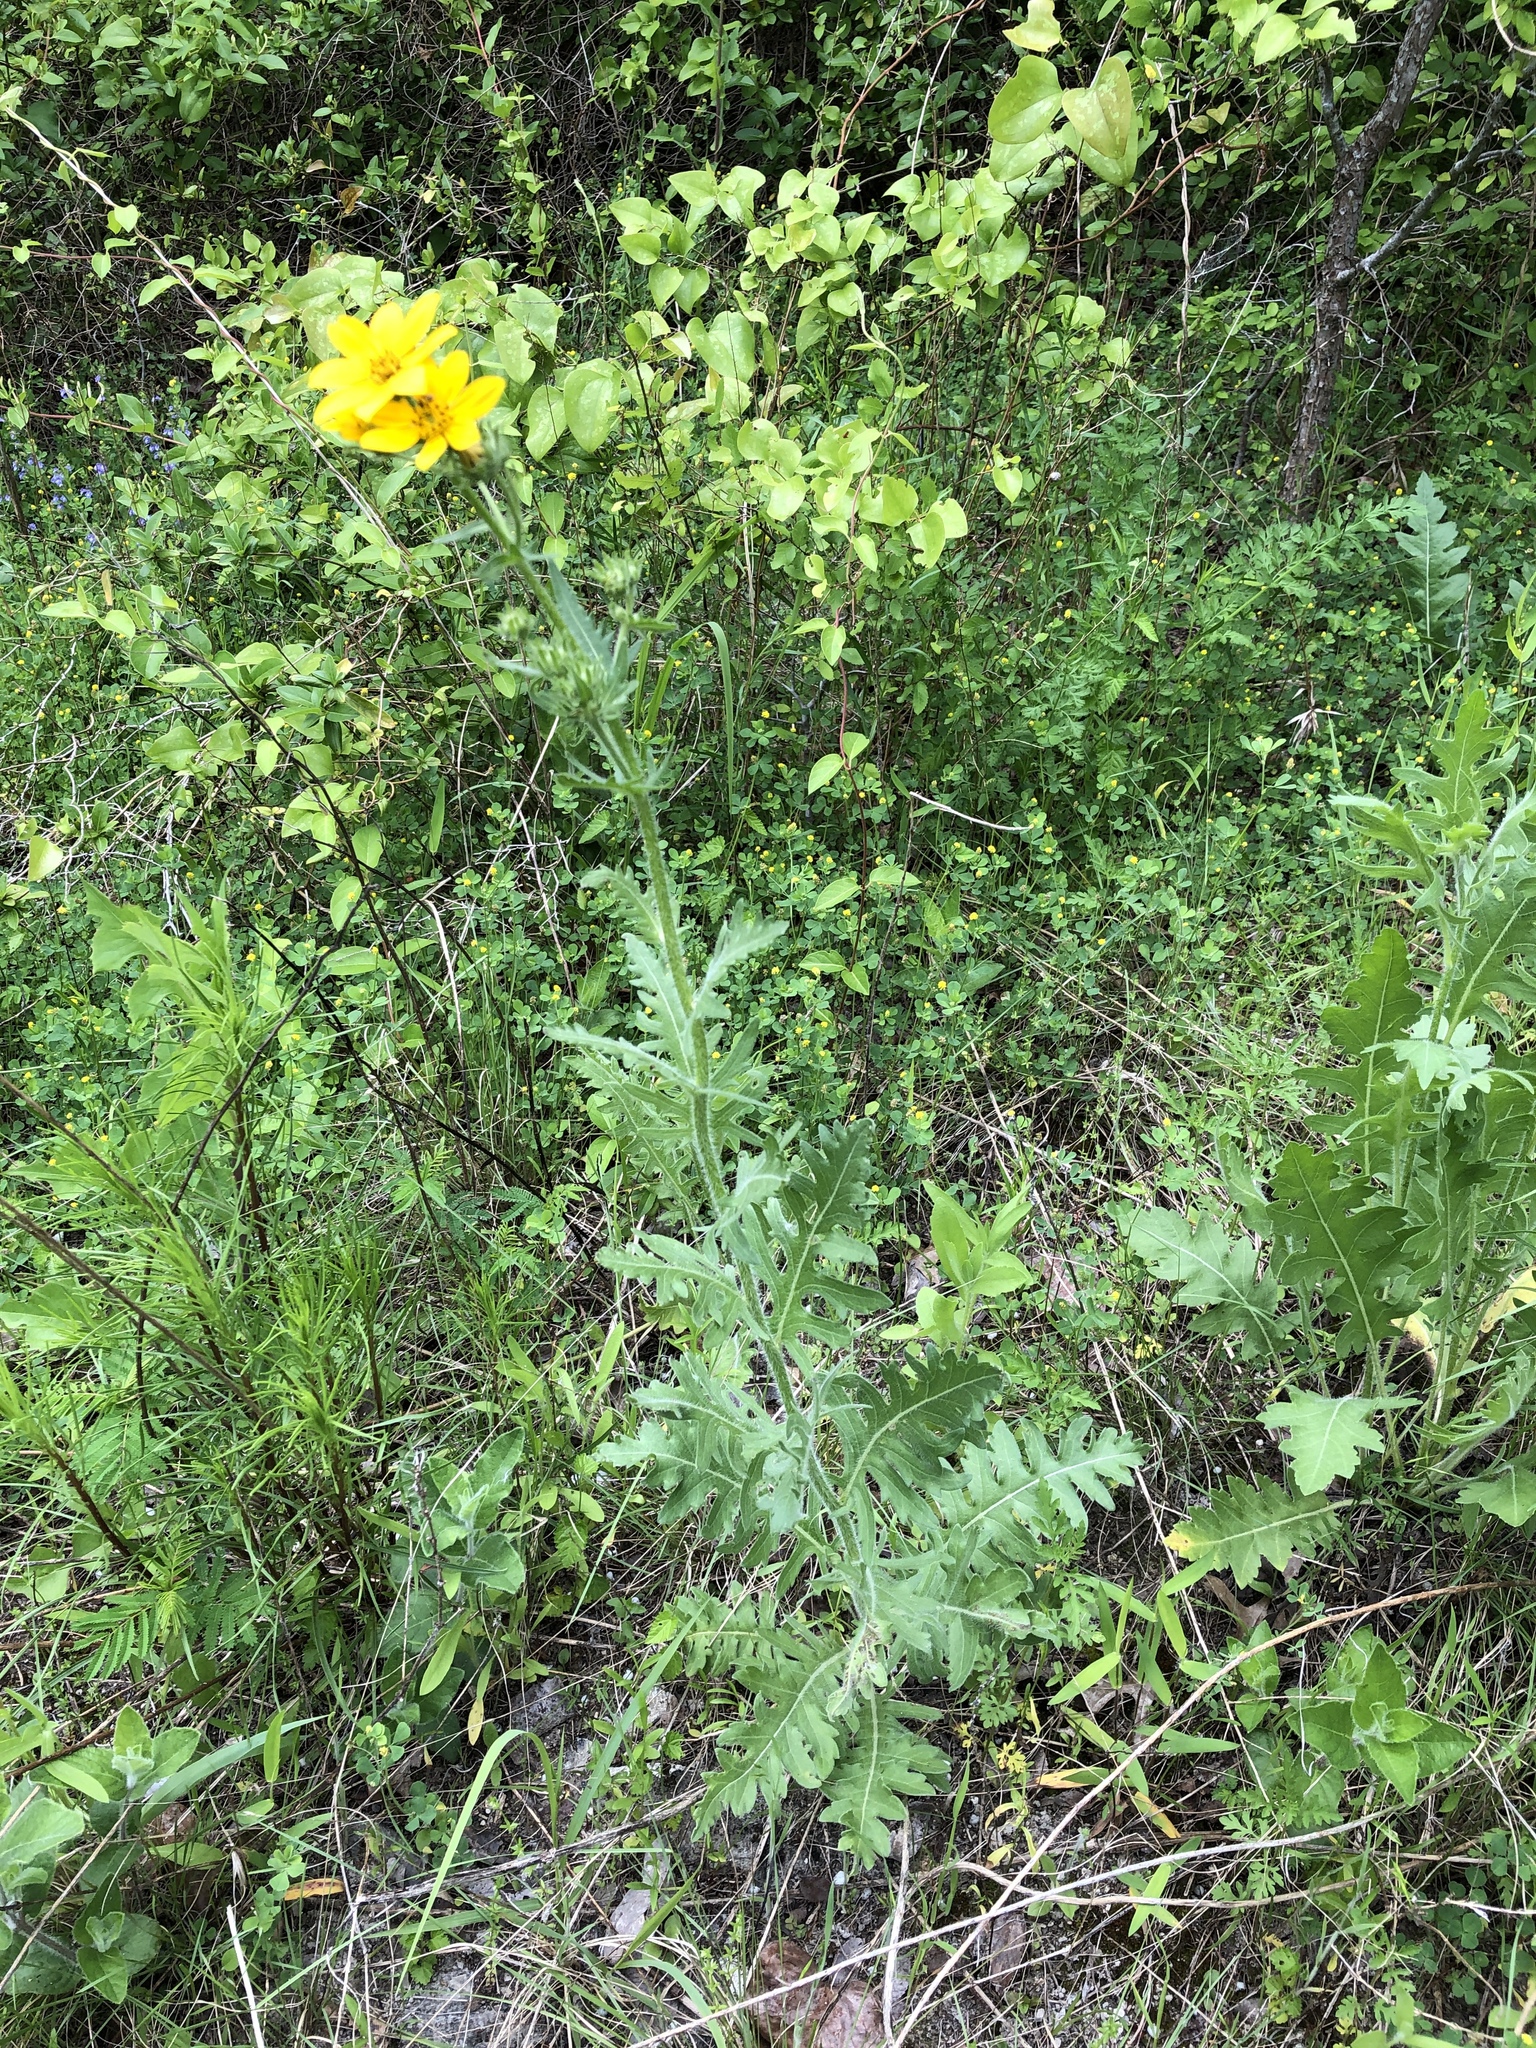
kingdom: Plantae
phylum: Tracheophyta
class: Magnoliopsida
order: Asterales
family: Asteraceae
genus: Engelmannia
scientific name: Engelmannia peristenia
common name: Engelmann's daisy
